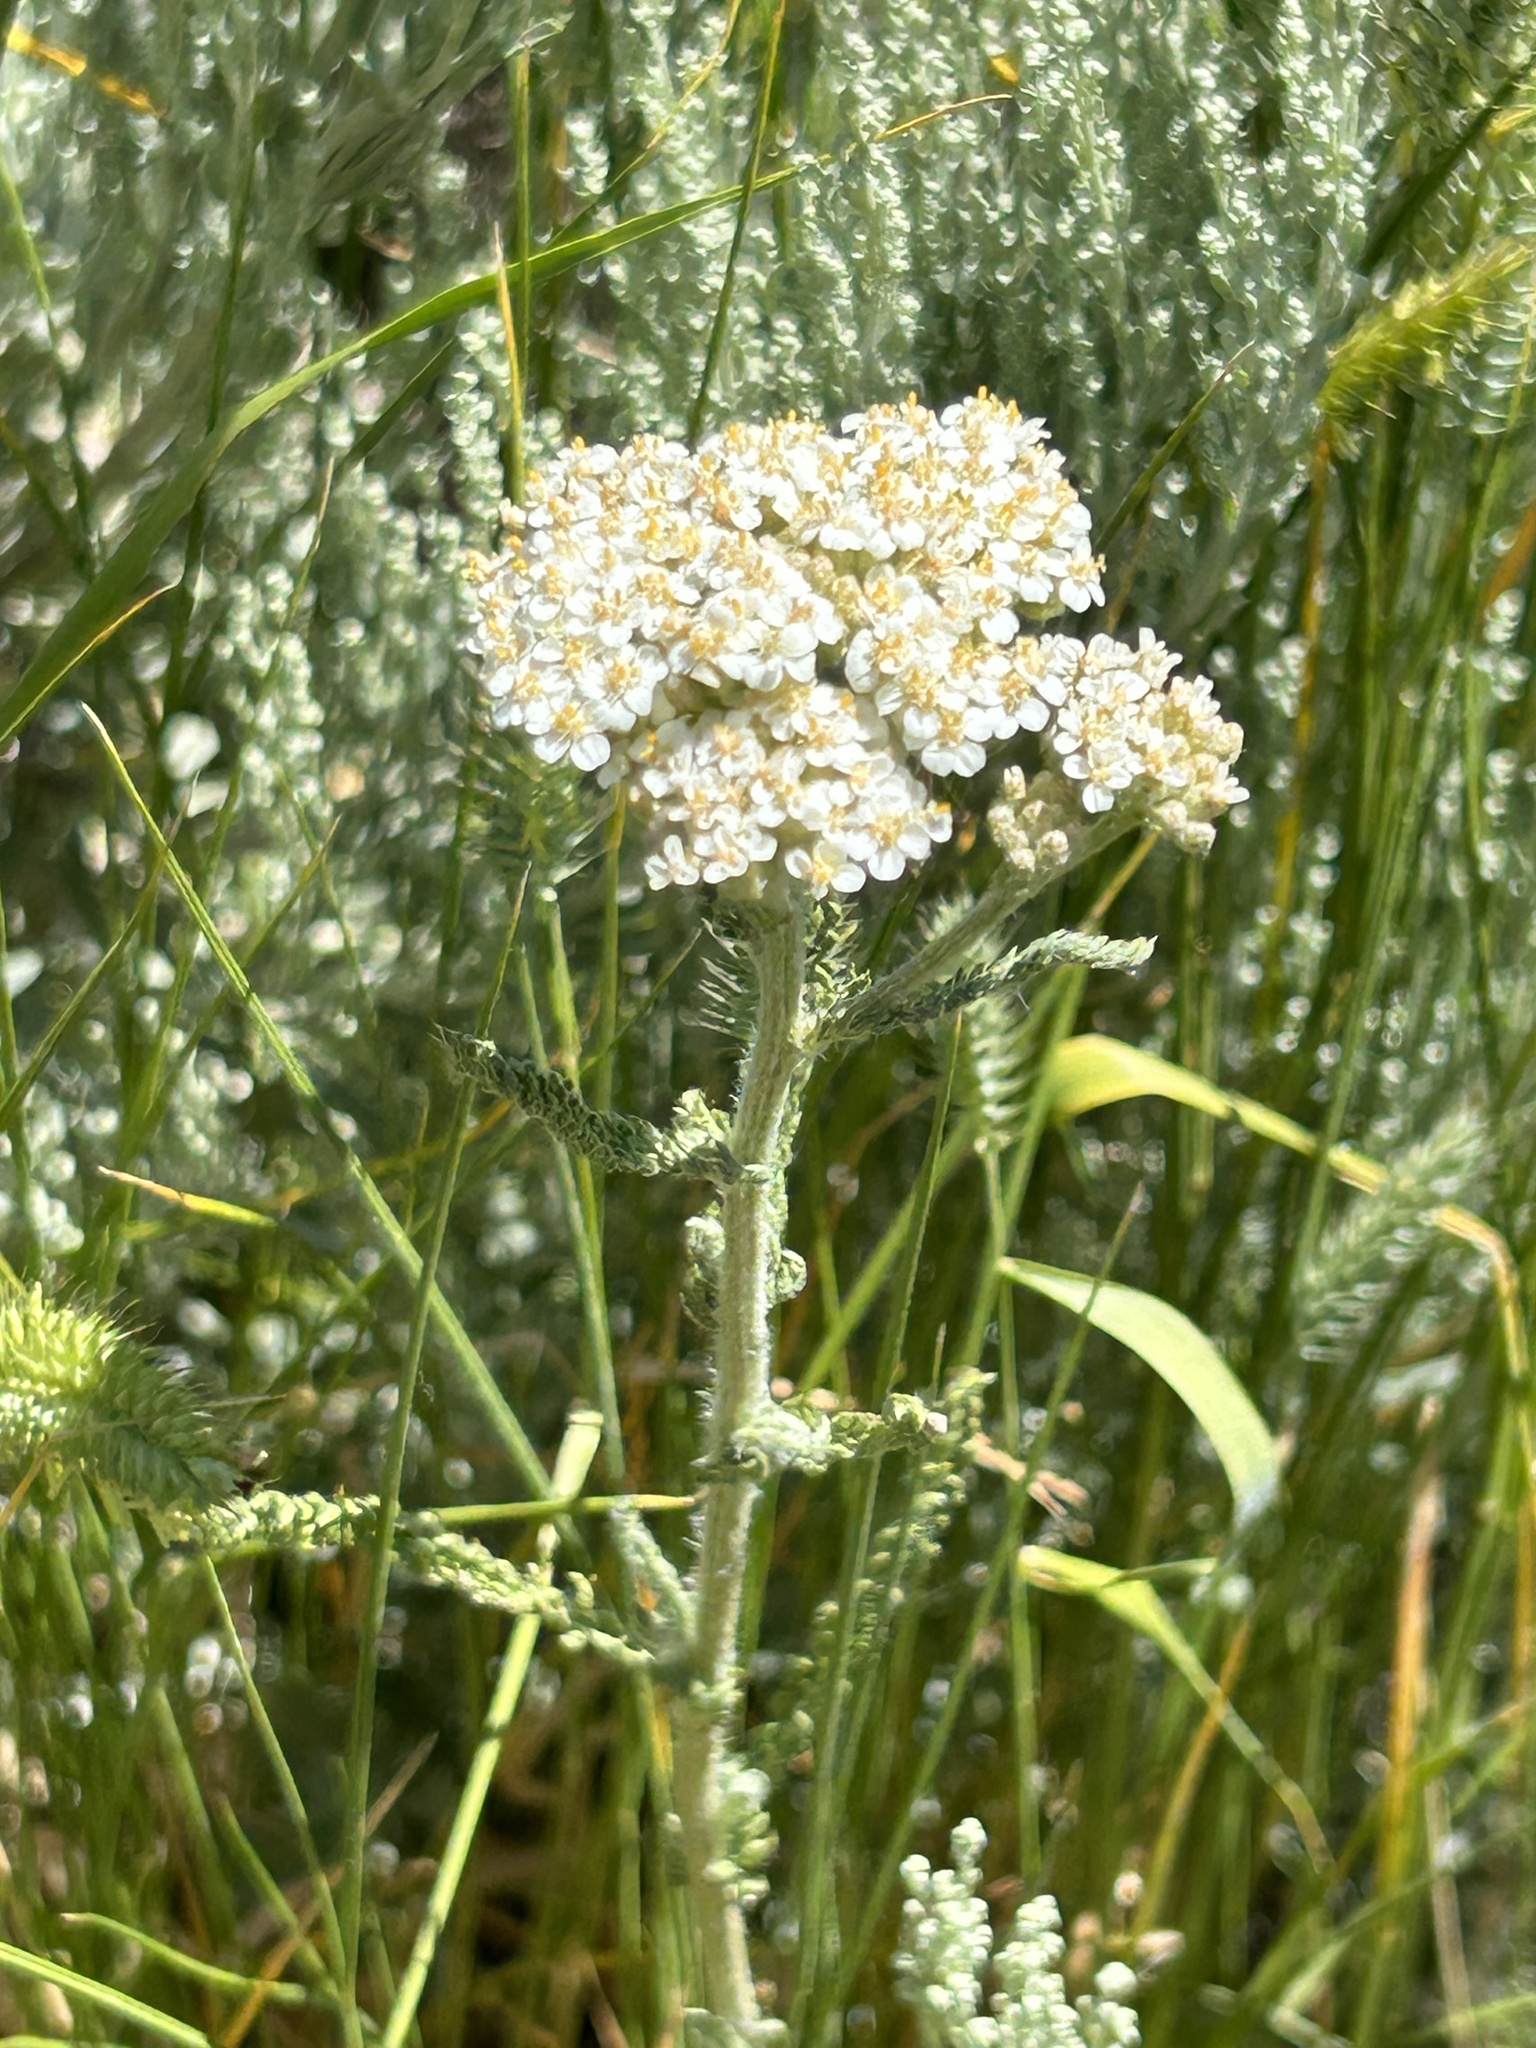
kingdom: Plantae
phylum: Tracheophyta
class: Magnoliopsida
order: Asterales
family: Asteraceae
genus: Achillea
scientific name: Achillea millefolium
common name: Yarrow
